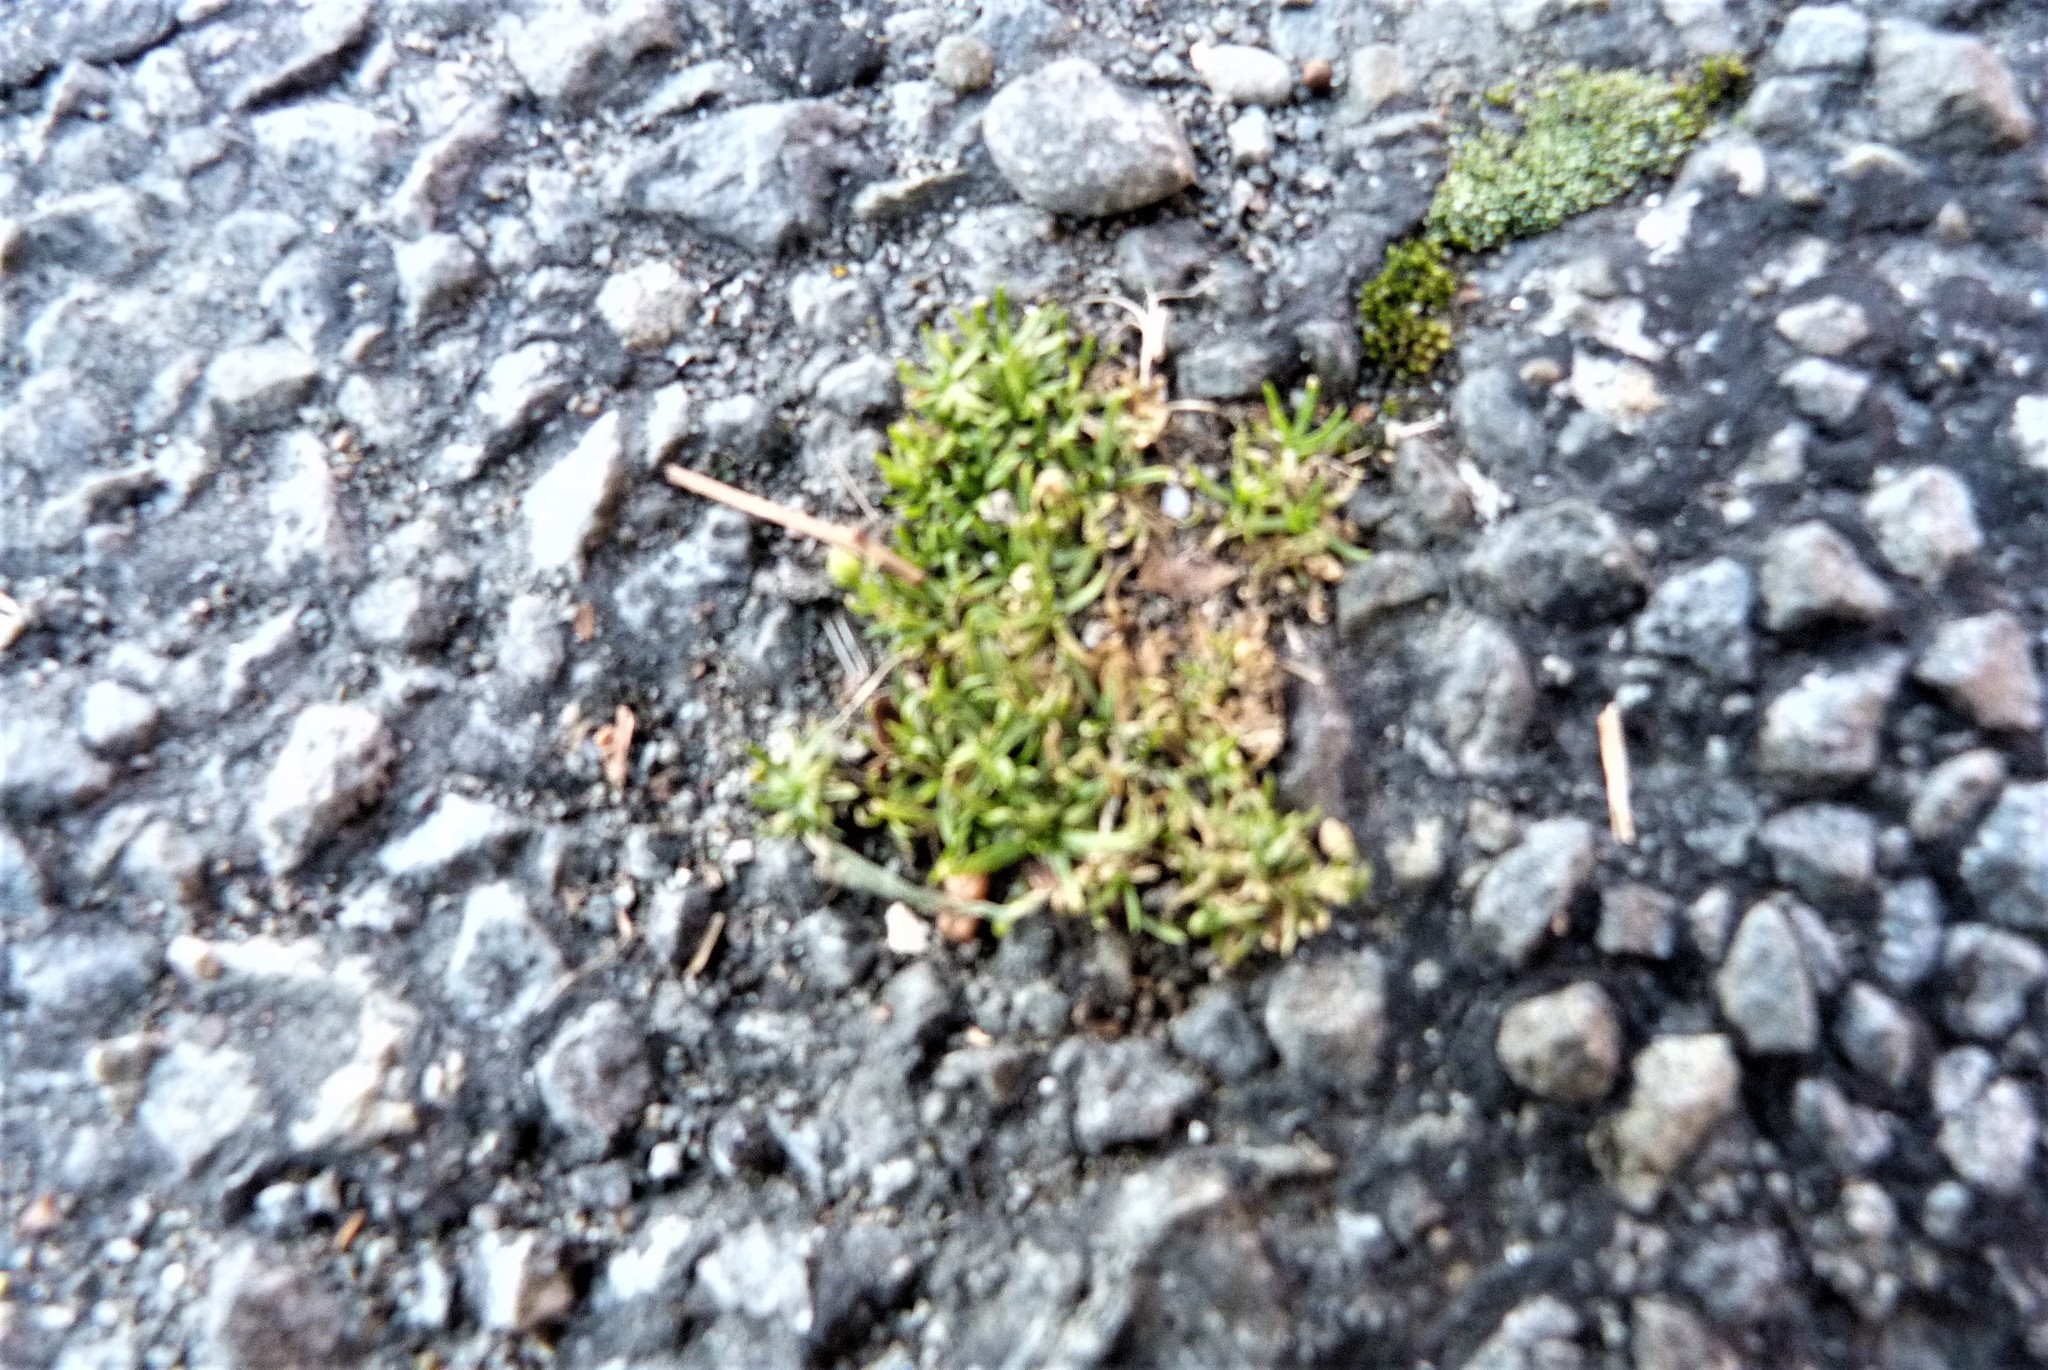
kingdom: Plantae
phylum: Tracheophyta
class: Magnoliopsida
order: Caryophyllales
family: Caryophyllaceae
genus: Sagina
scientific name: Sagina procumbens
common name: Procumbent pearlwort
